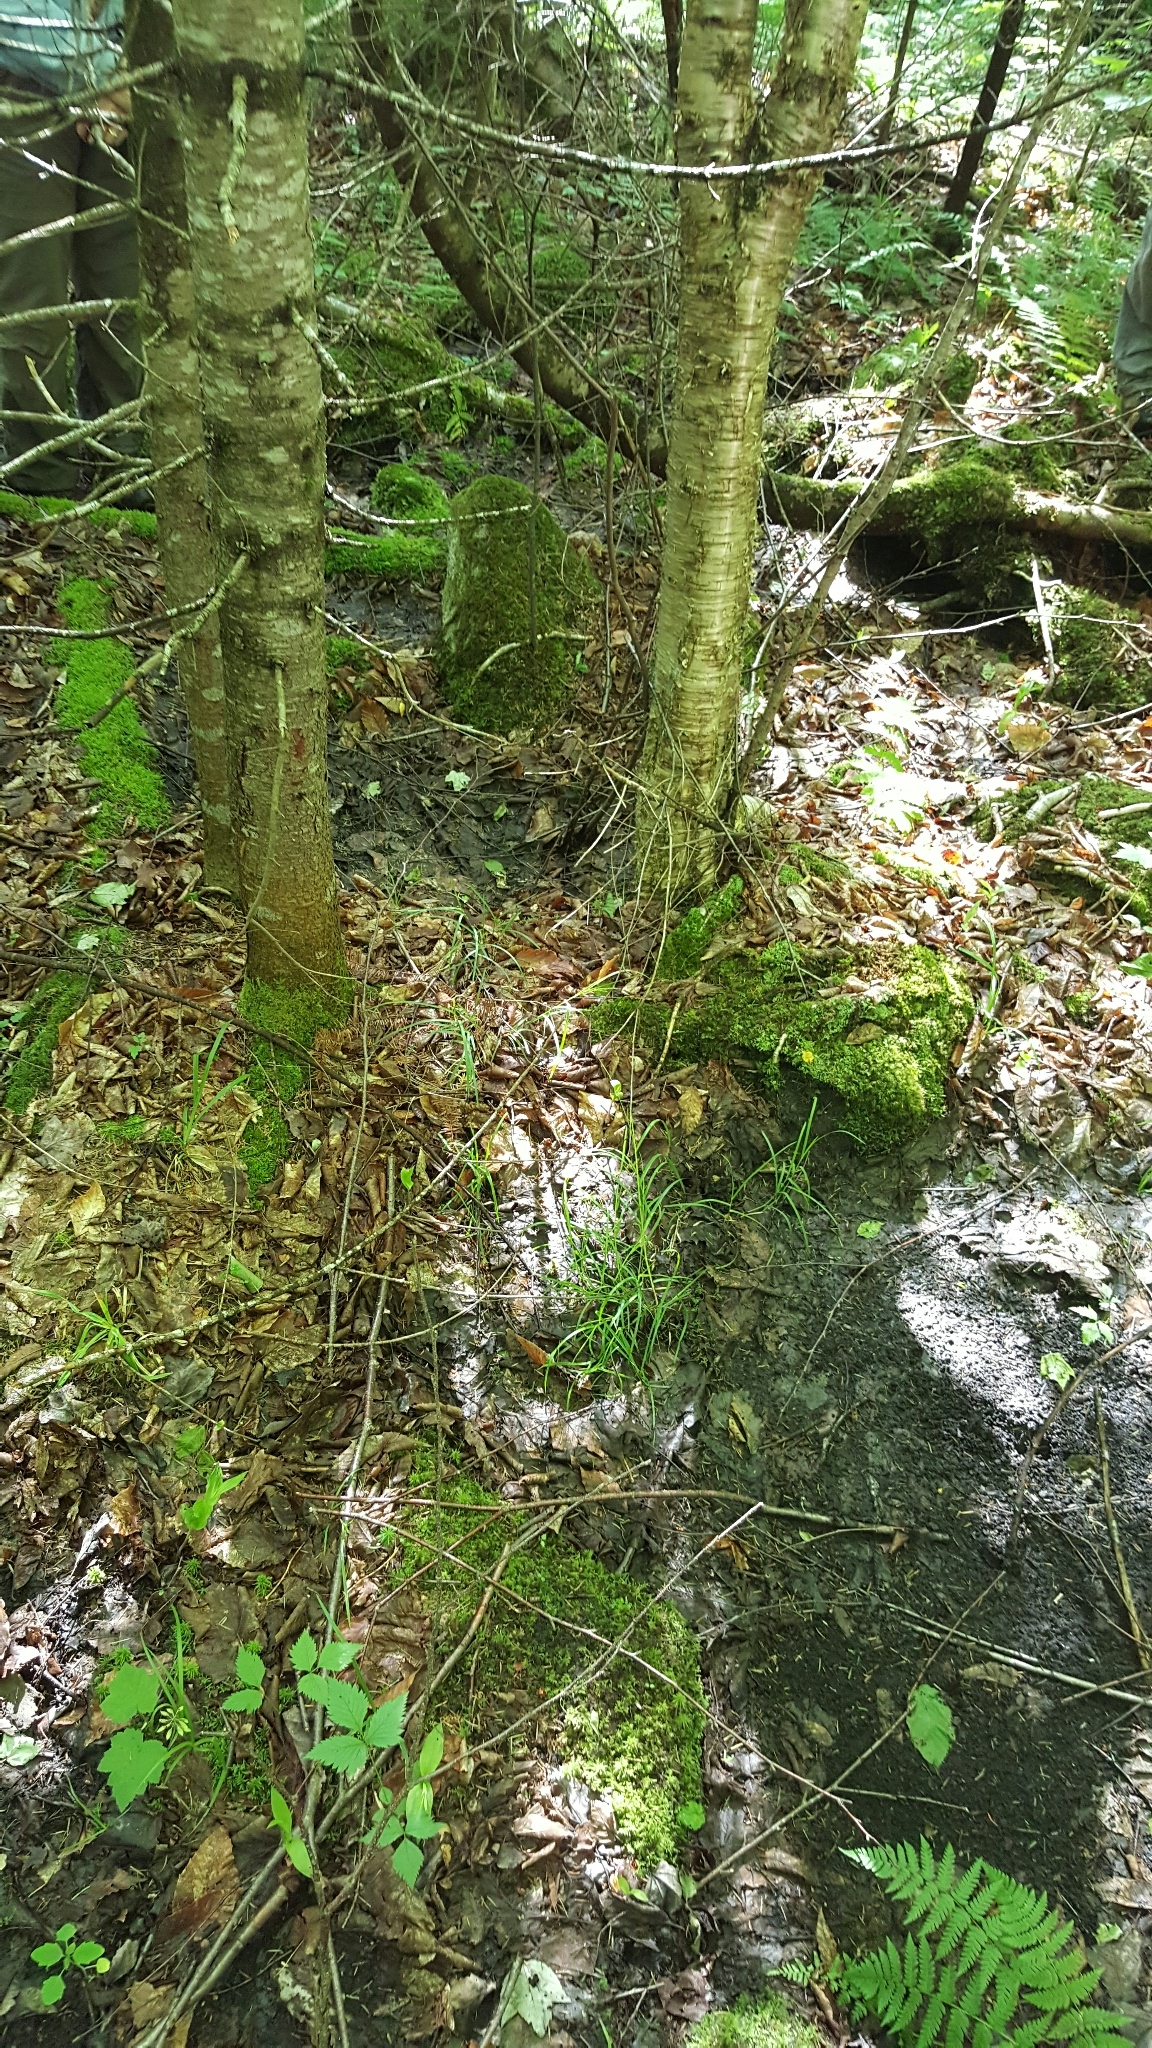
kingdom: Plantae
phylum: Tracheophyta
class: Pinopsida
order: Pinales
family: Pinaceae
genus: Abies
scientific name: Abies balsamea
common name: Balsam fir
